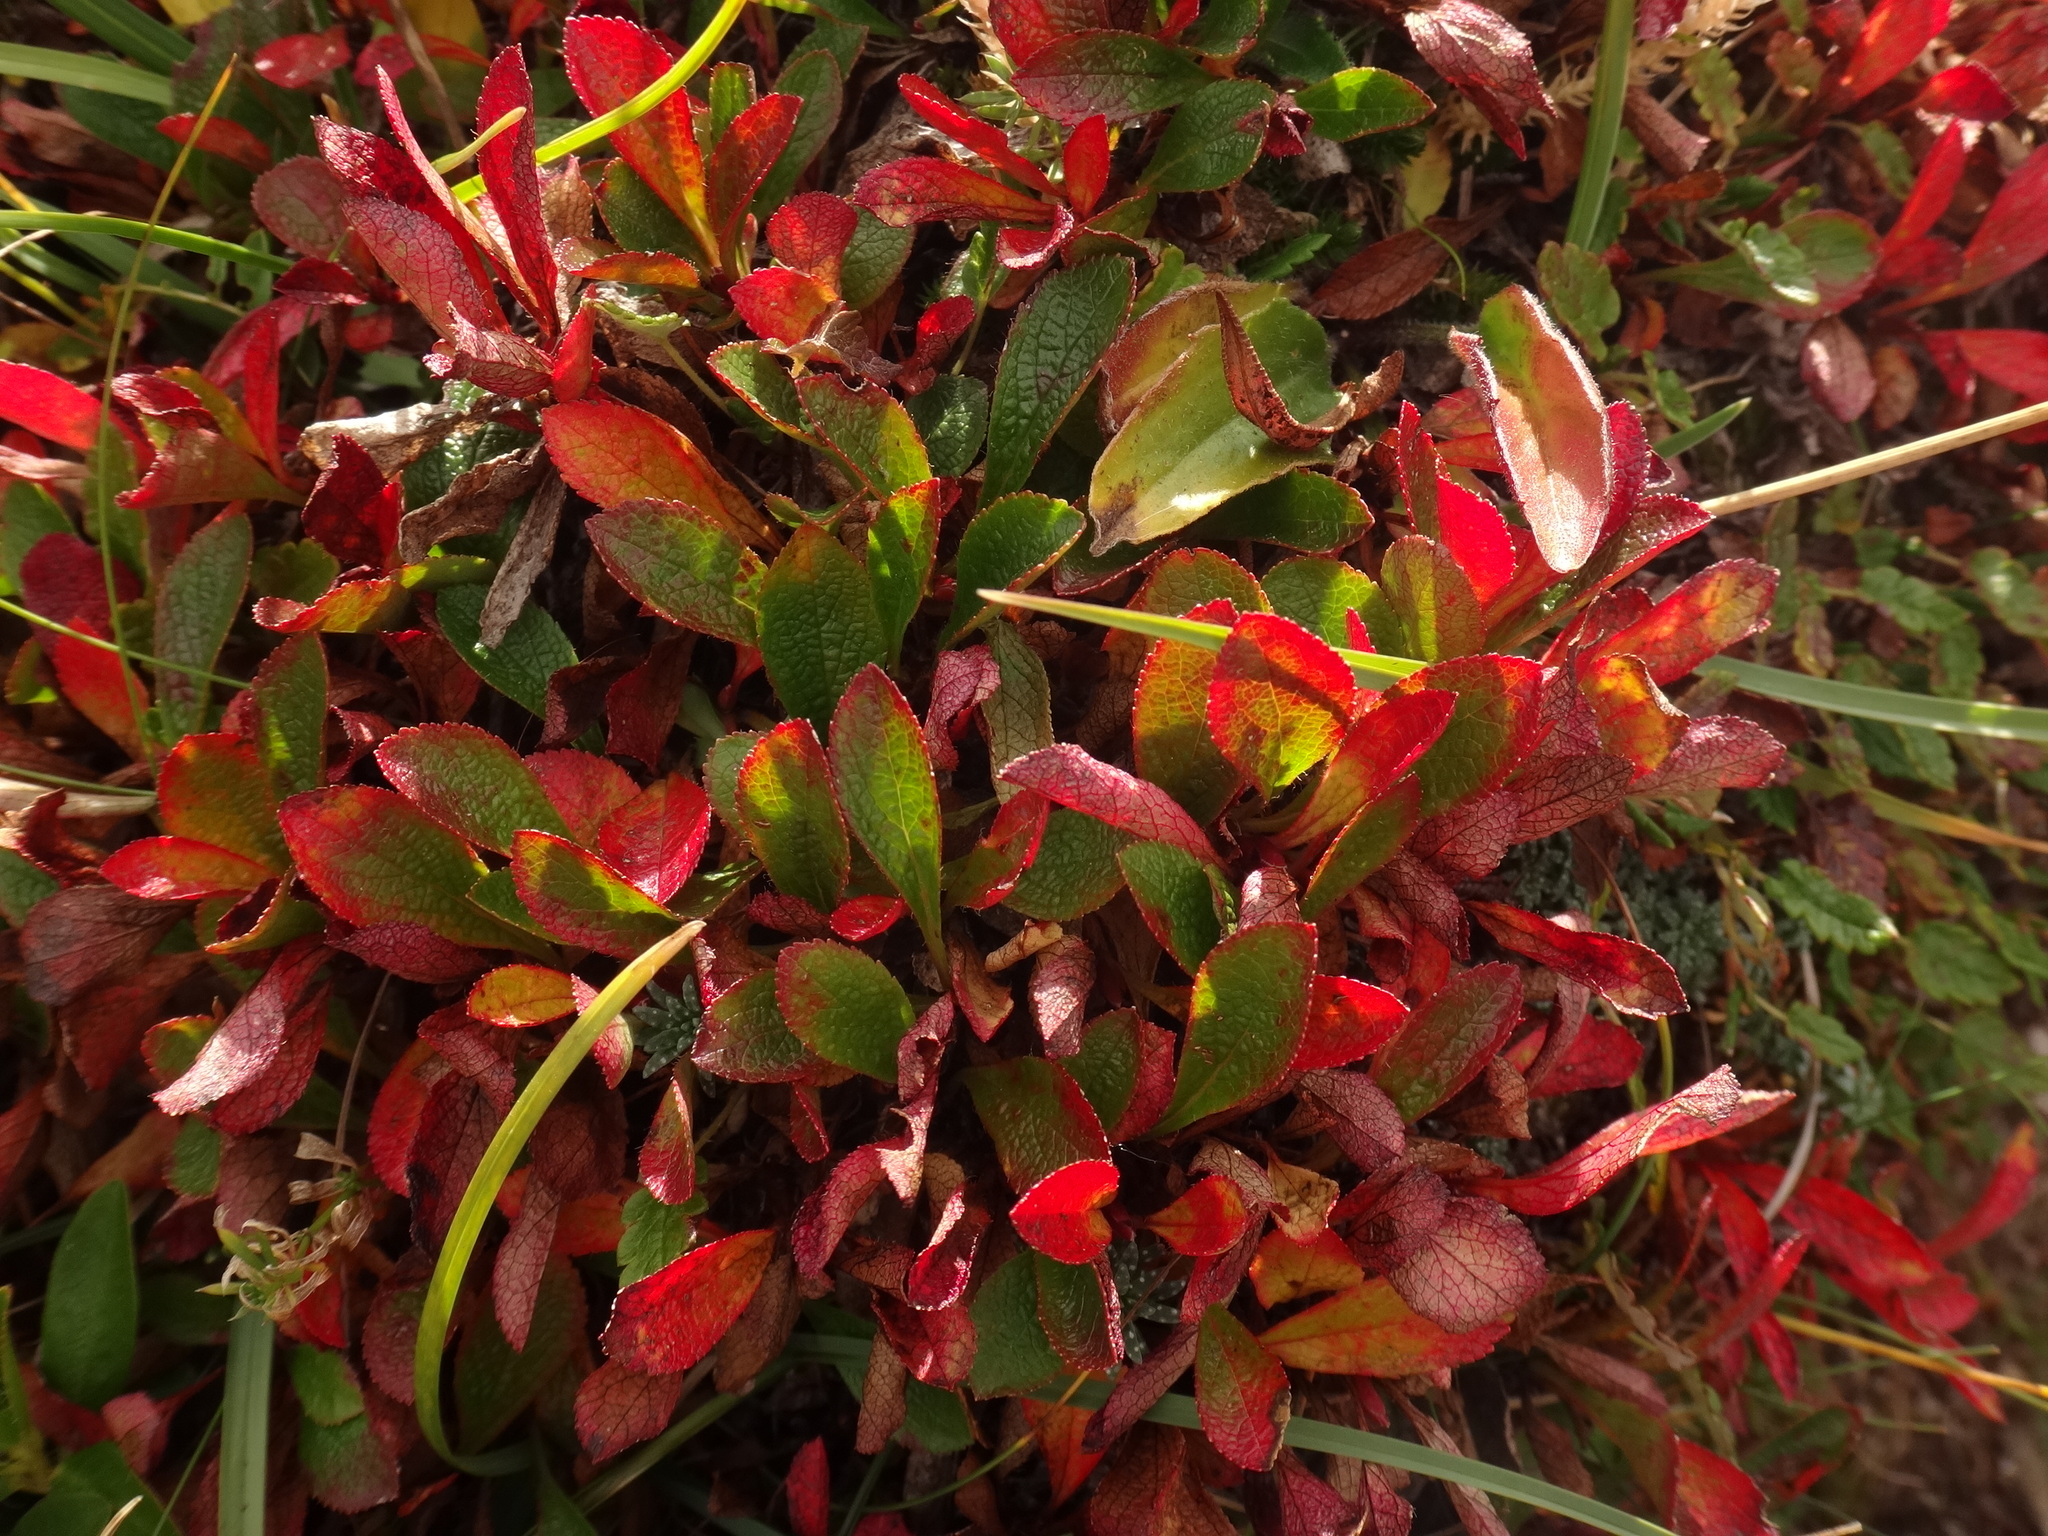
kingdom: Plantae
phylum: Tracheophyta
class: Magnoliopsida
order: Ericales
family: Ericaceae
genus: Arctostaphylos
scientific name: Arctostaphylos alpinus
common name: Alpine bearberry
